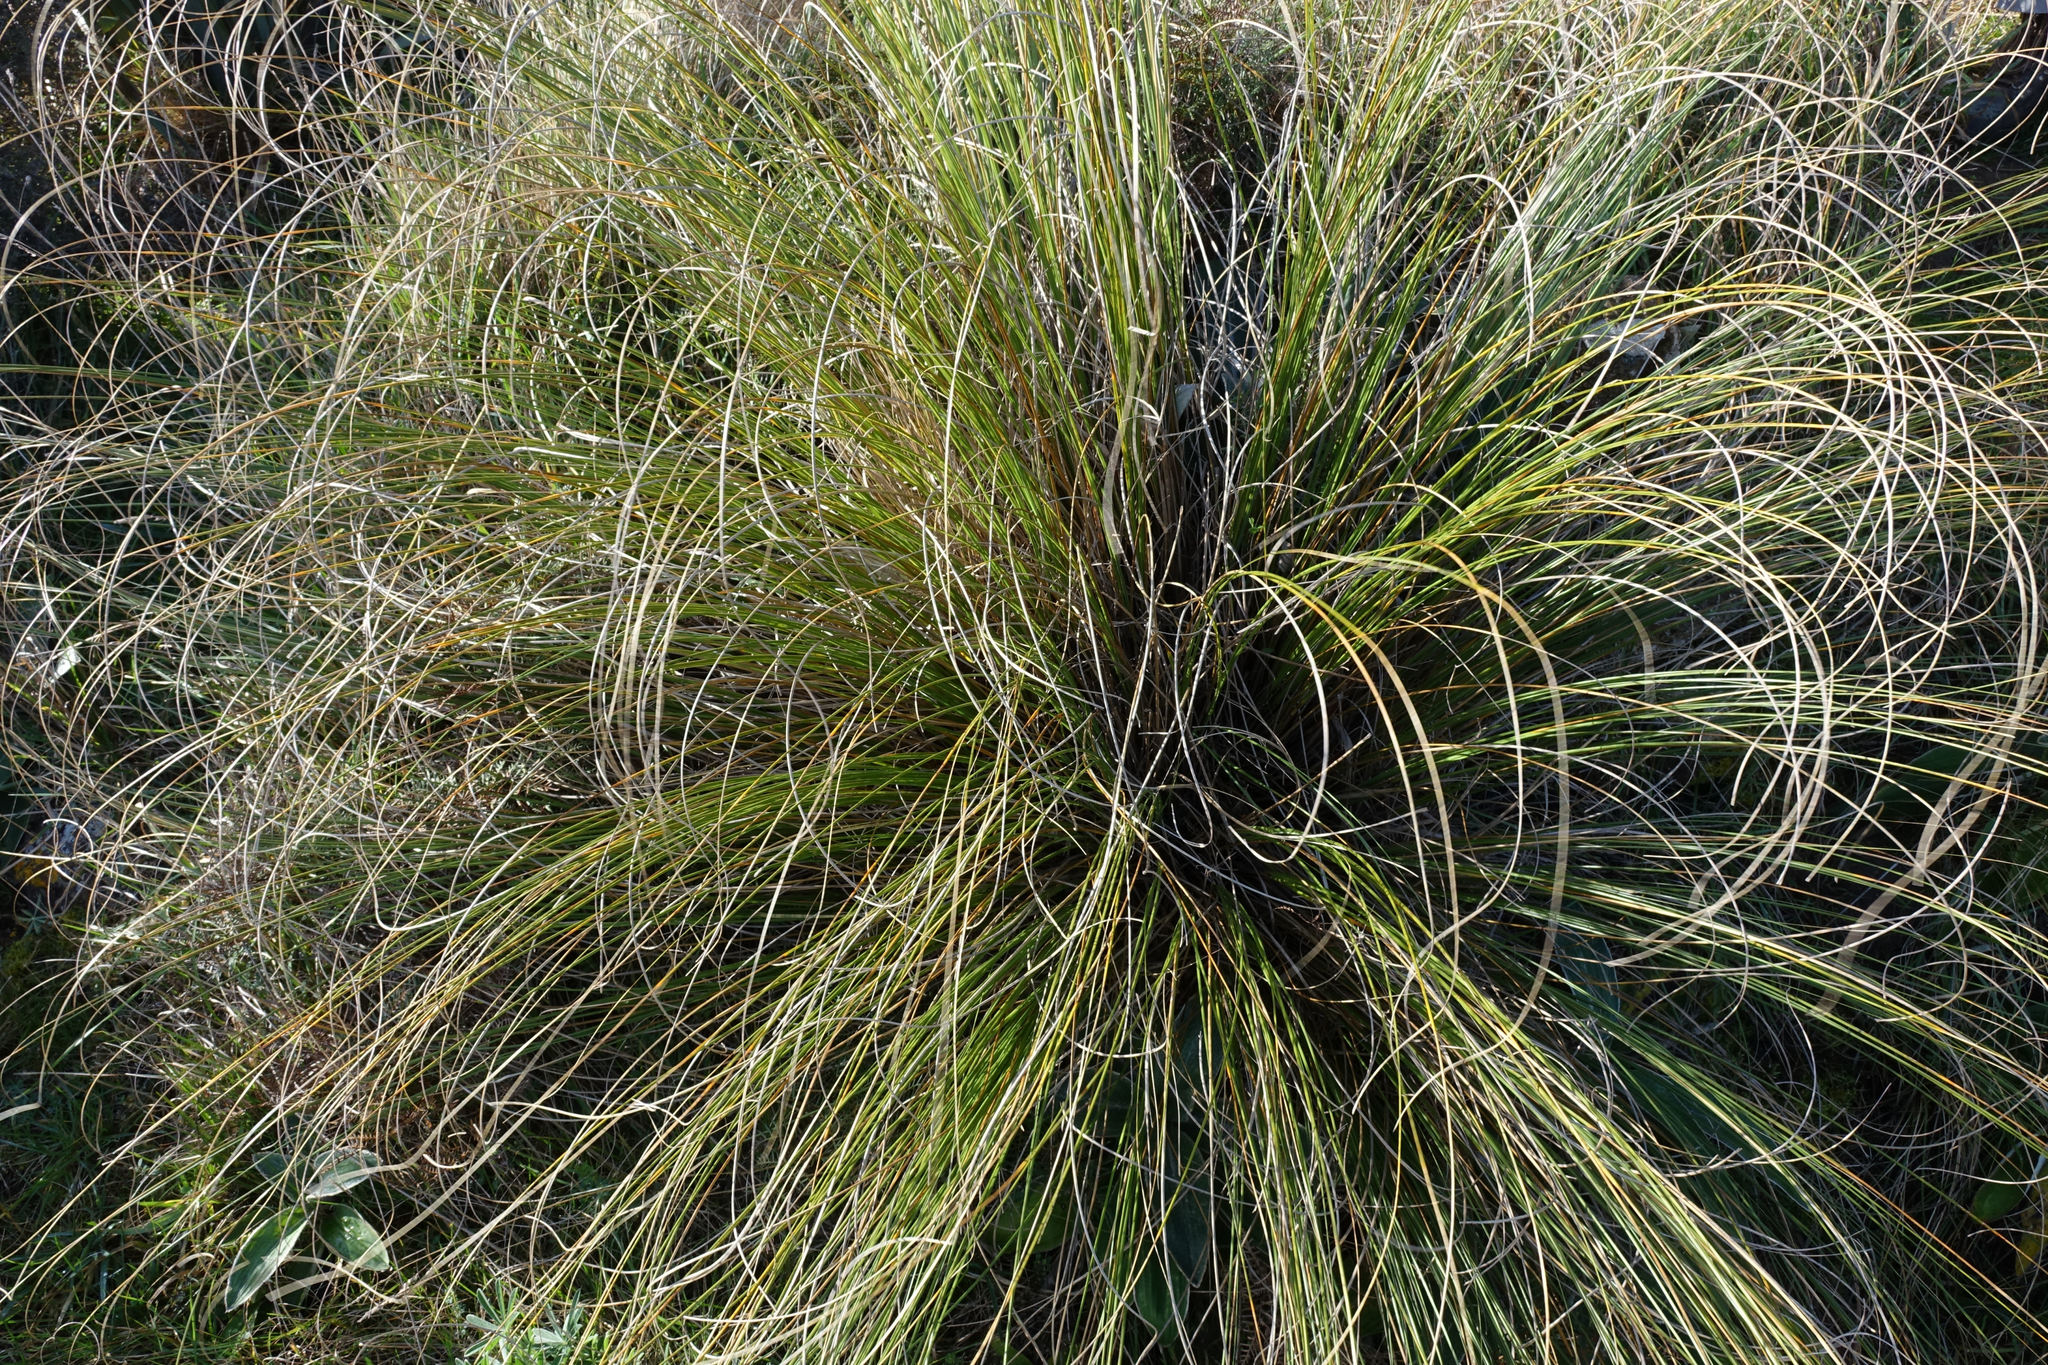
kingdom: Plantae
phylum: Tracheophyta
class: Liliopsida
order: Poales
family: Poaceae
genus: Chionochloa
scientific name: Chionochloa rigida
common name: Narrow leaved snow tussock
